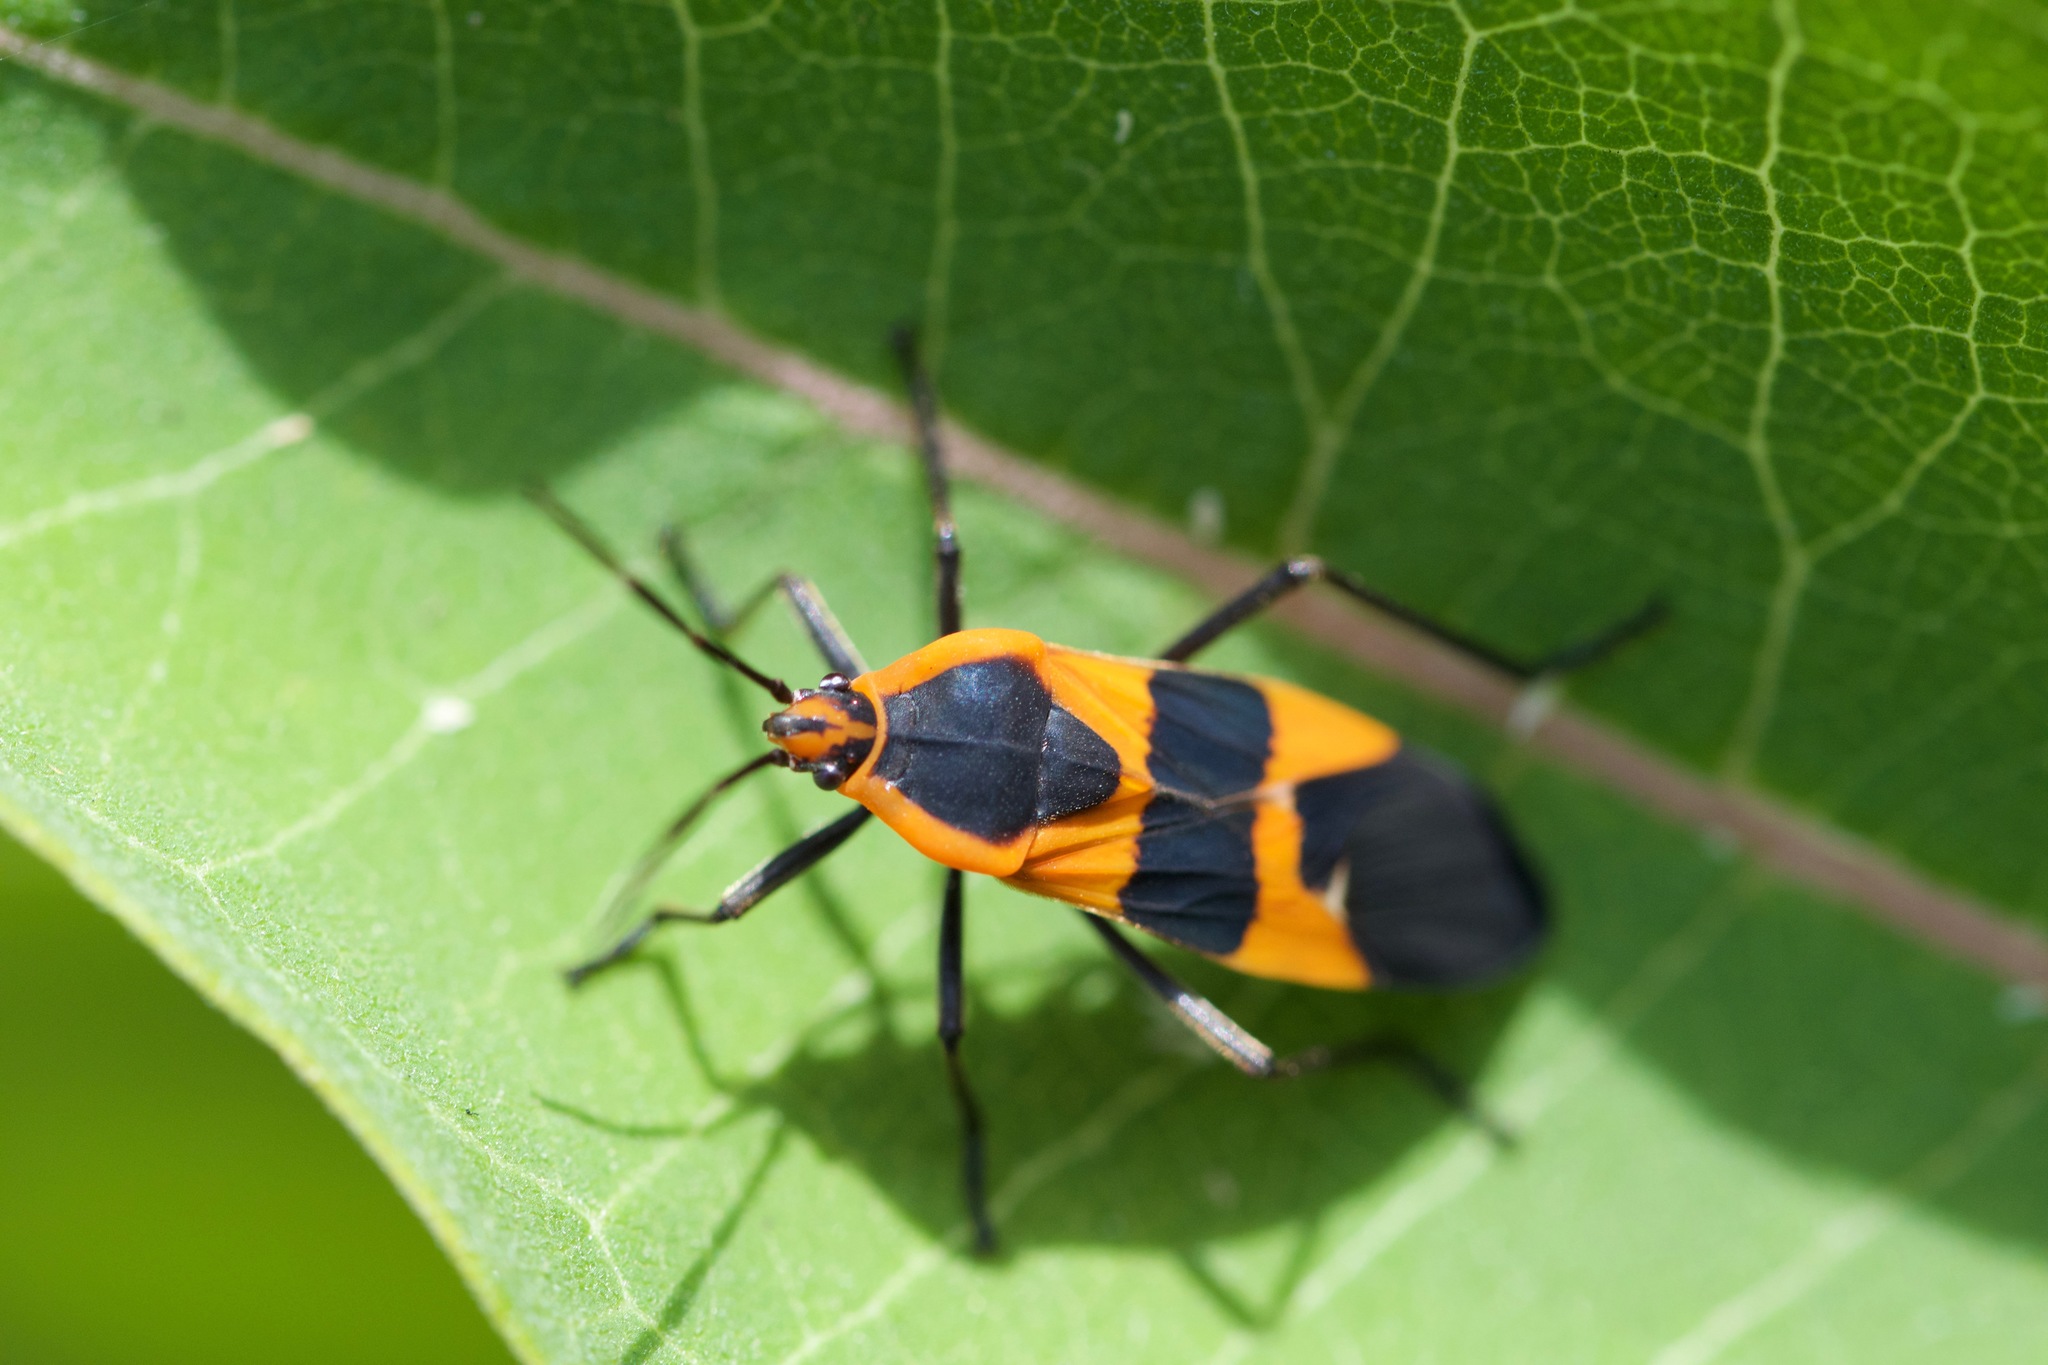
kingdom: Animalia
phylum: Arthropoda
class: Insecta
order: Hemiptera
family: Lygaeidae
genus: Oncopeltus
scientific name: Oncopeltus fasciatus
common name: Large milkweed bug
